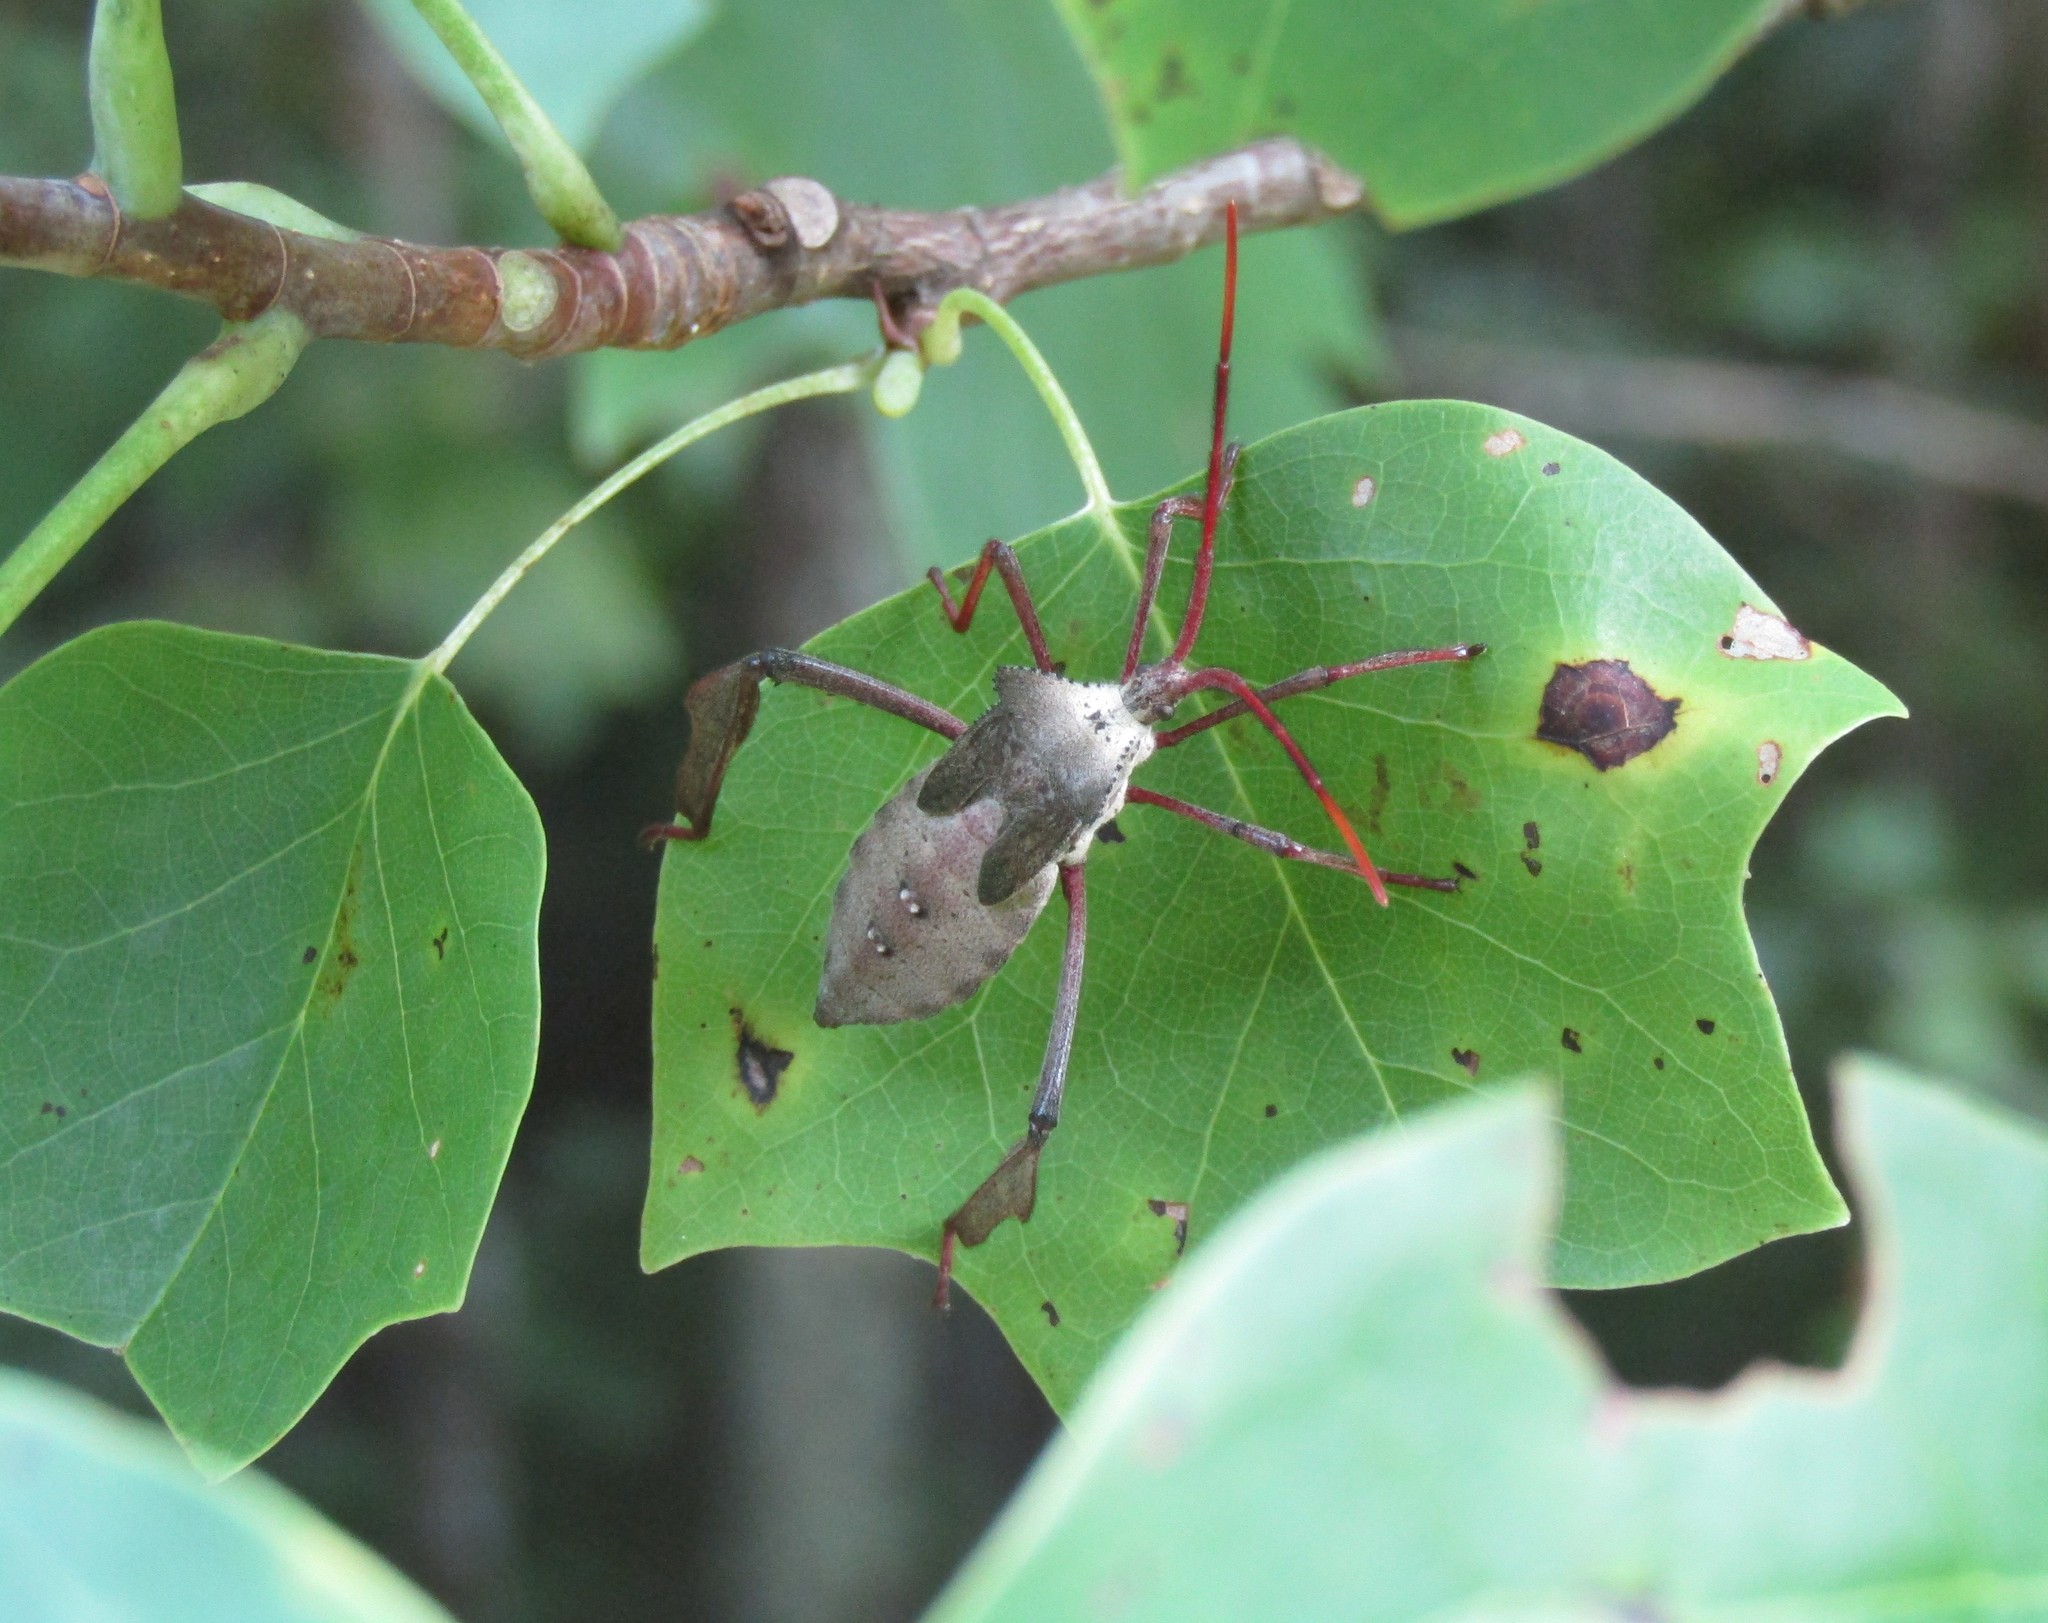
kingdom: Animalia
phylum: Arthropoda
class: Insecta
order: Hemiptera
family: Coreidae
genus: Acanthocephala
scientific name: Acanthocephala declivis
